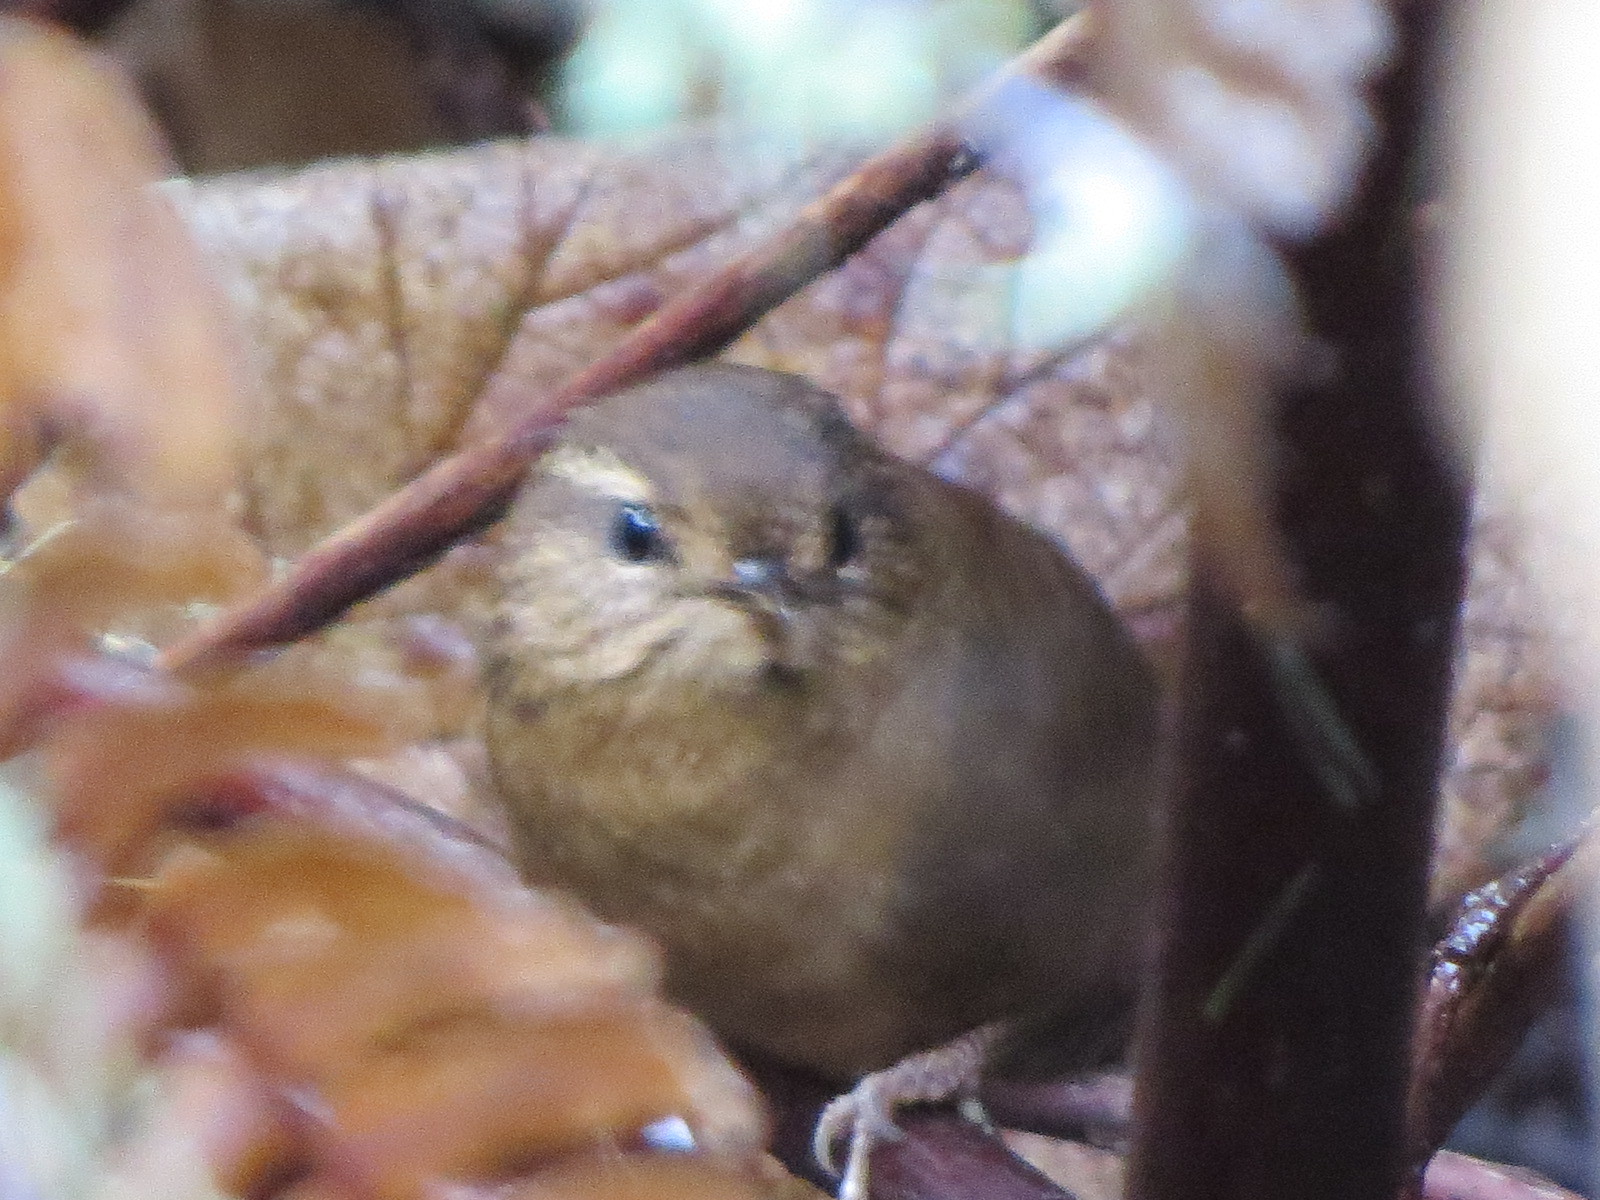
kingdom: Animalia
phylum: Chordata
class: Aves
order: Passeriformes
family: Troglodytidae
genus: Troglodytes
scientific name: Troglodytes pacificus
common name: Pacific wren
